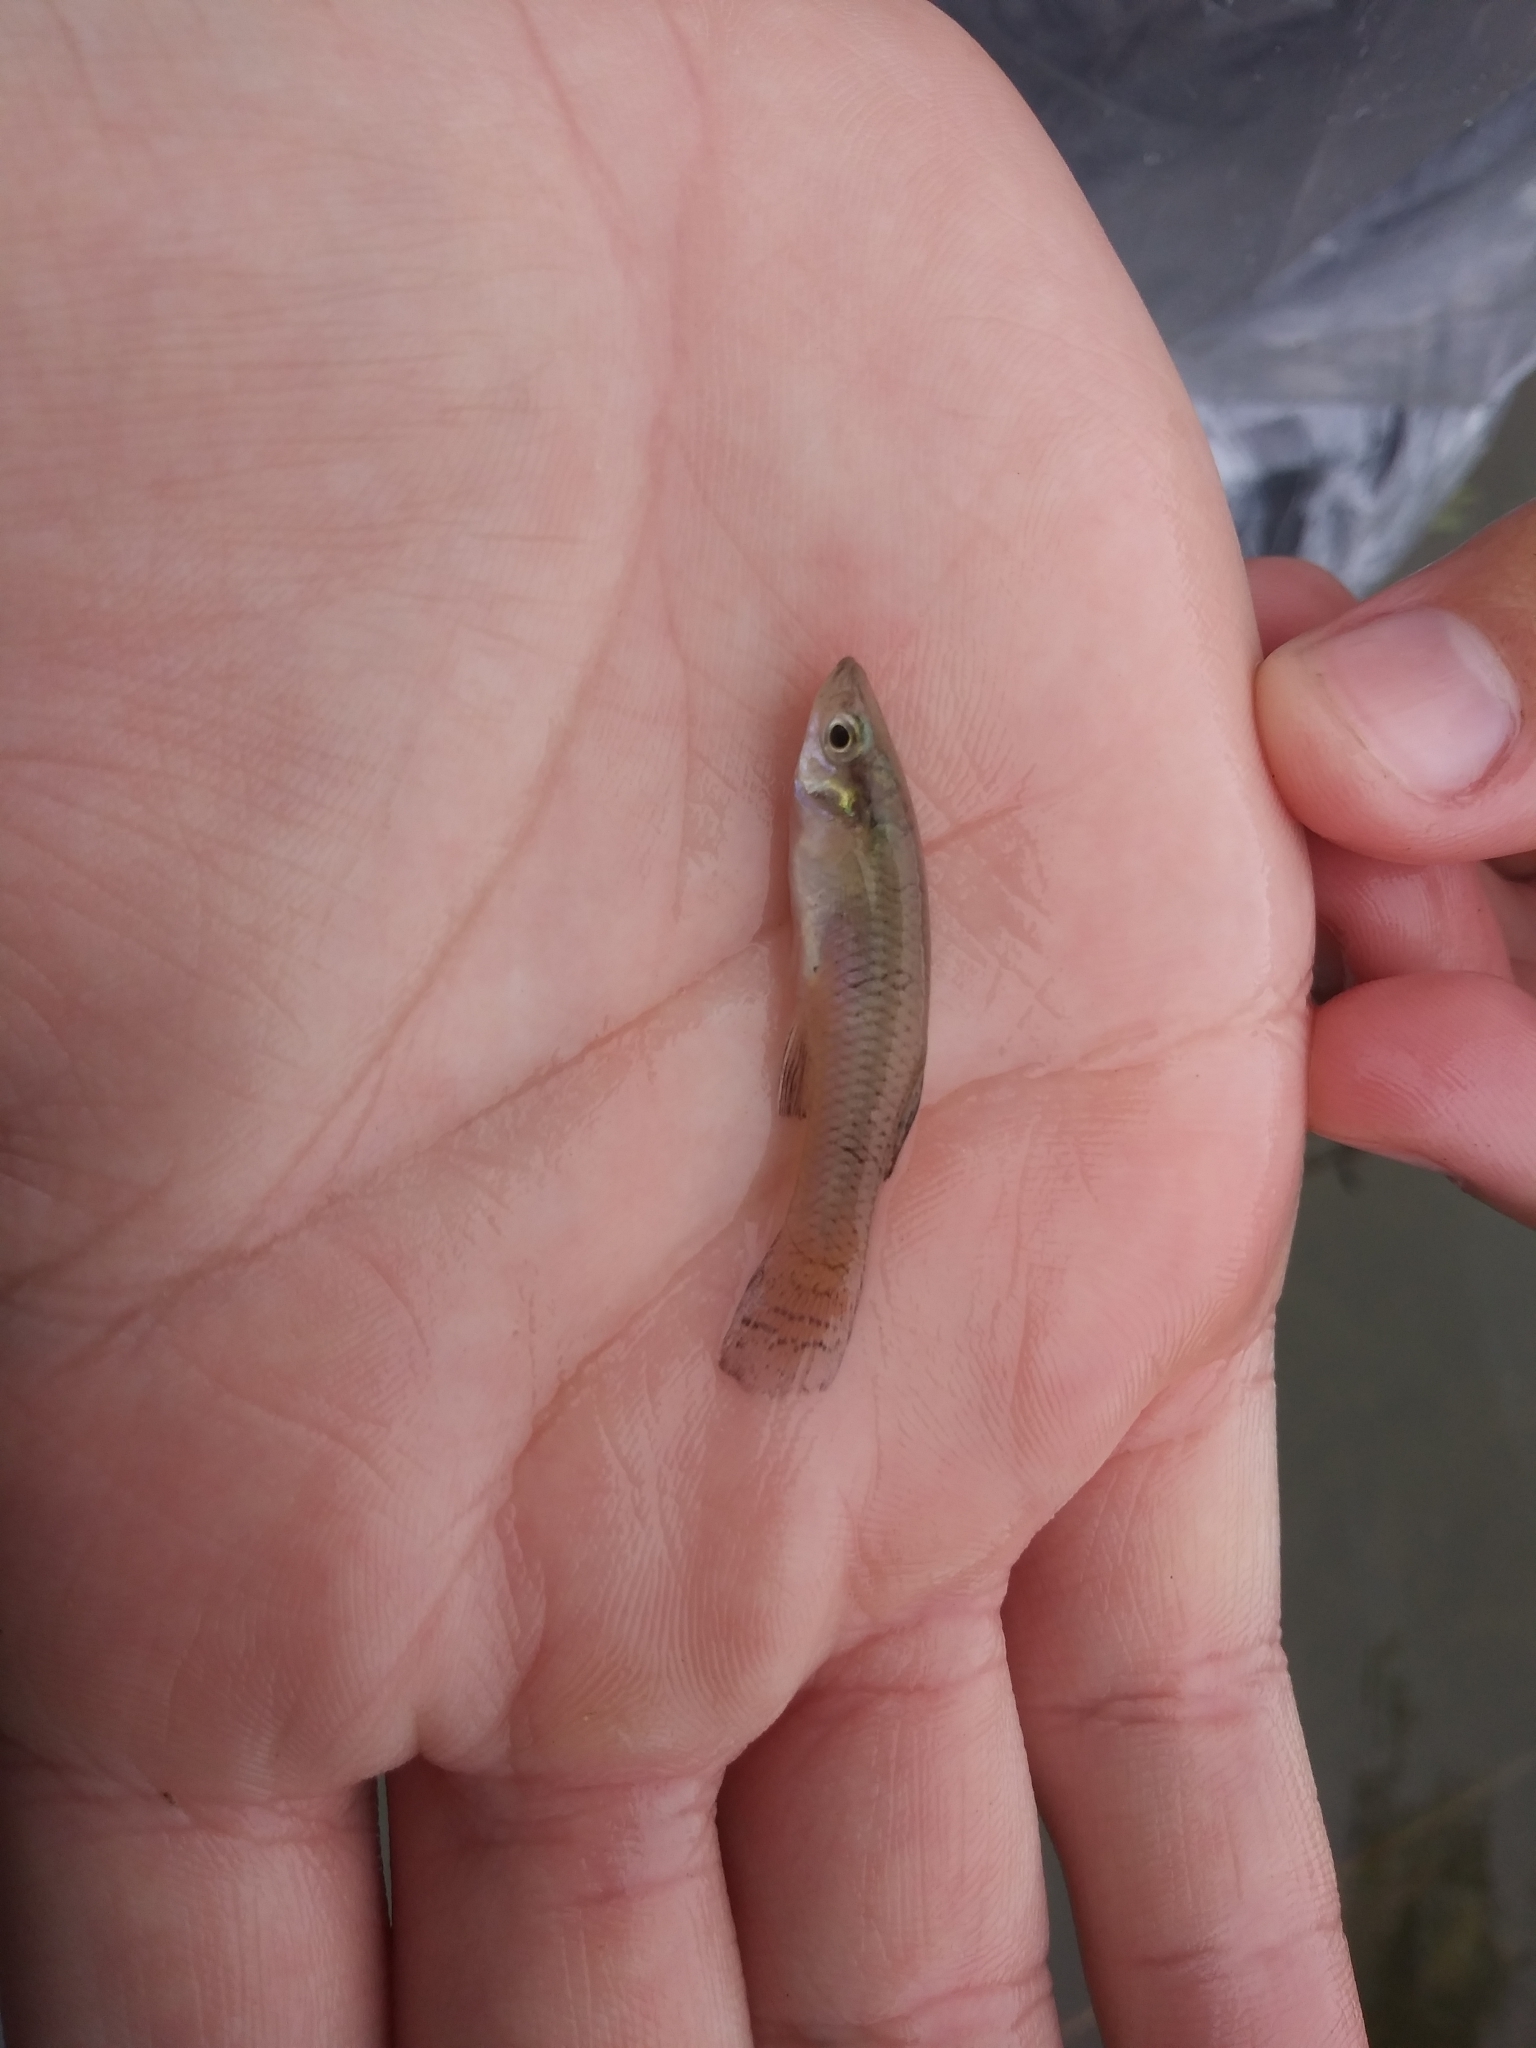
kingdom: Animalia
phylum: Chordata
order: Cyprinodontiformes
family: Poeciliidae
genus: Gambusia
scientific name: Gambusia holbrooki
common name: Eastern mosquitofish
